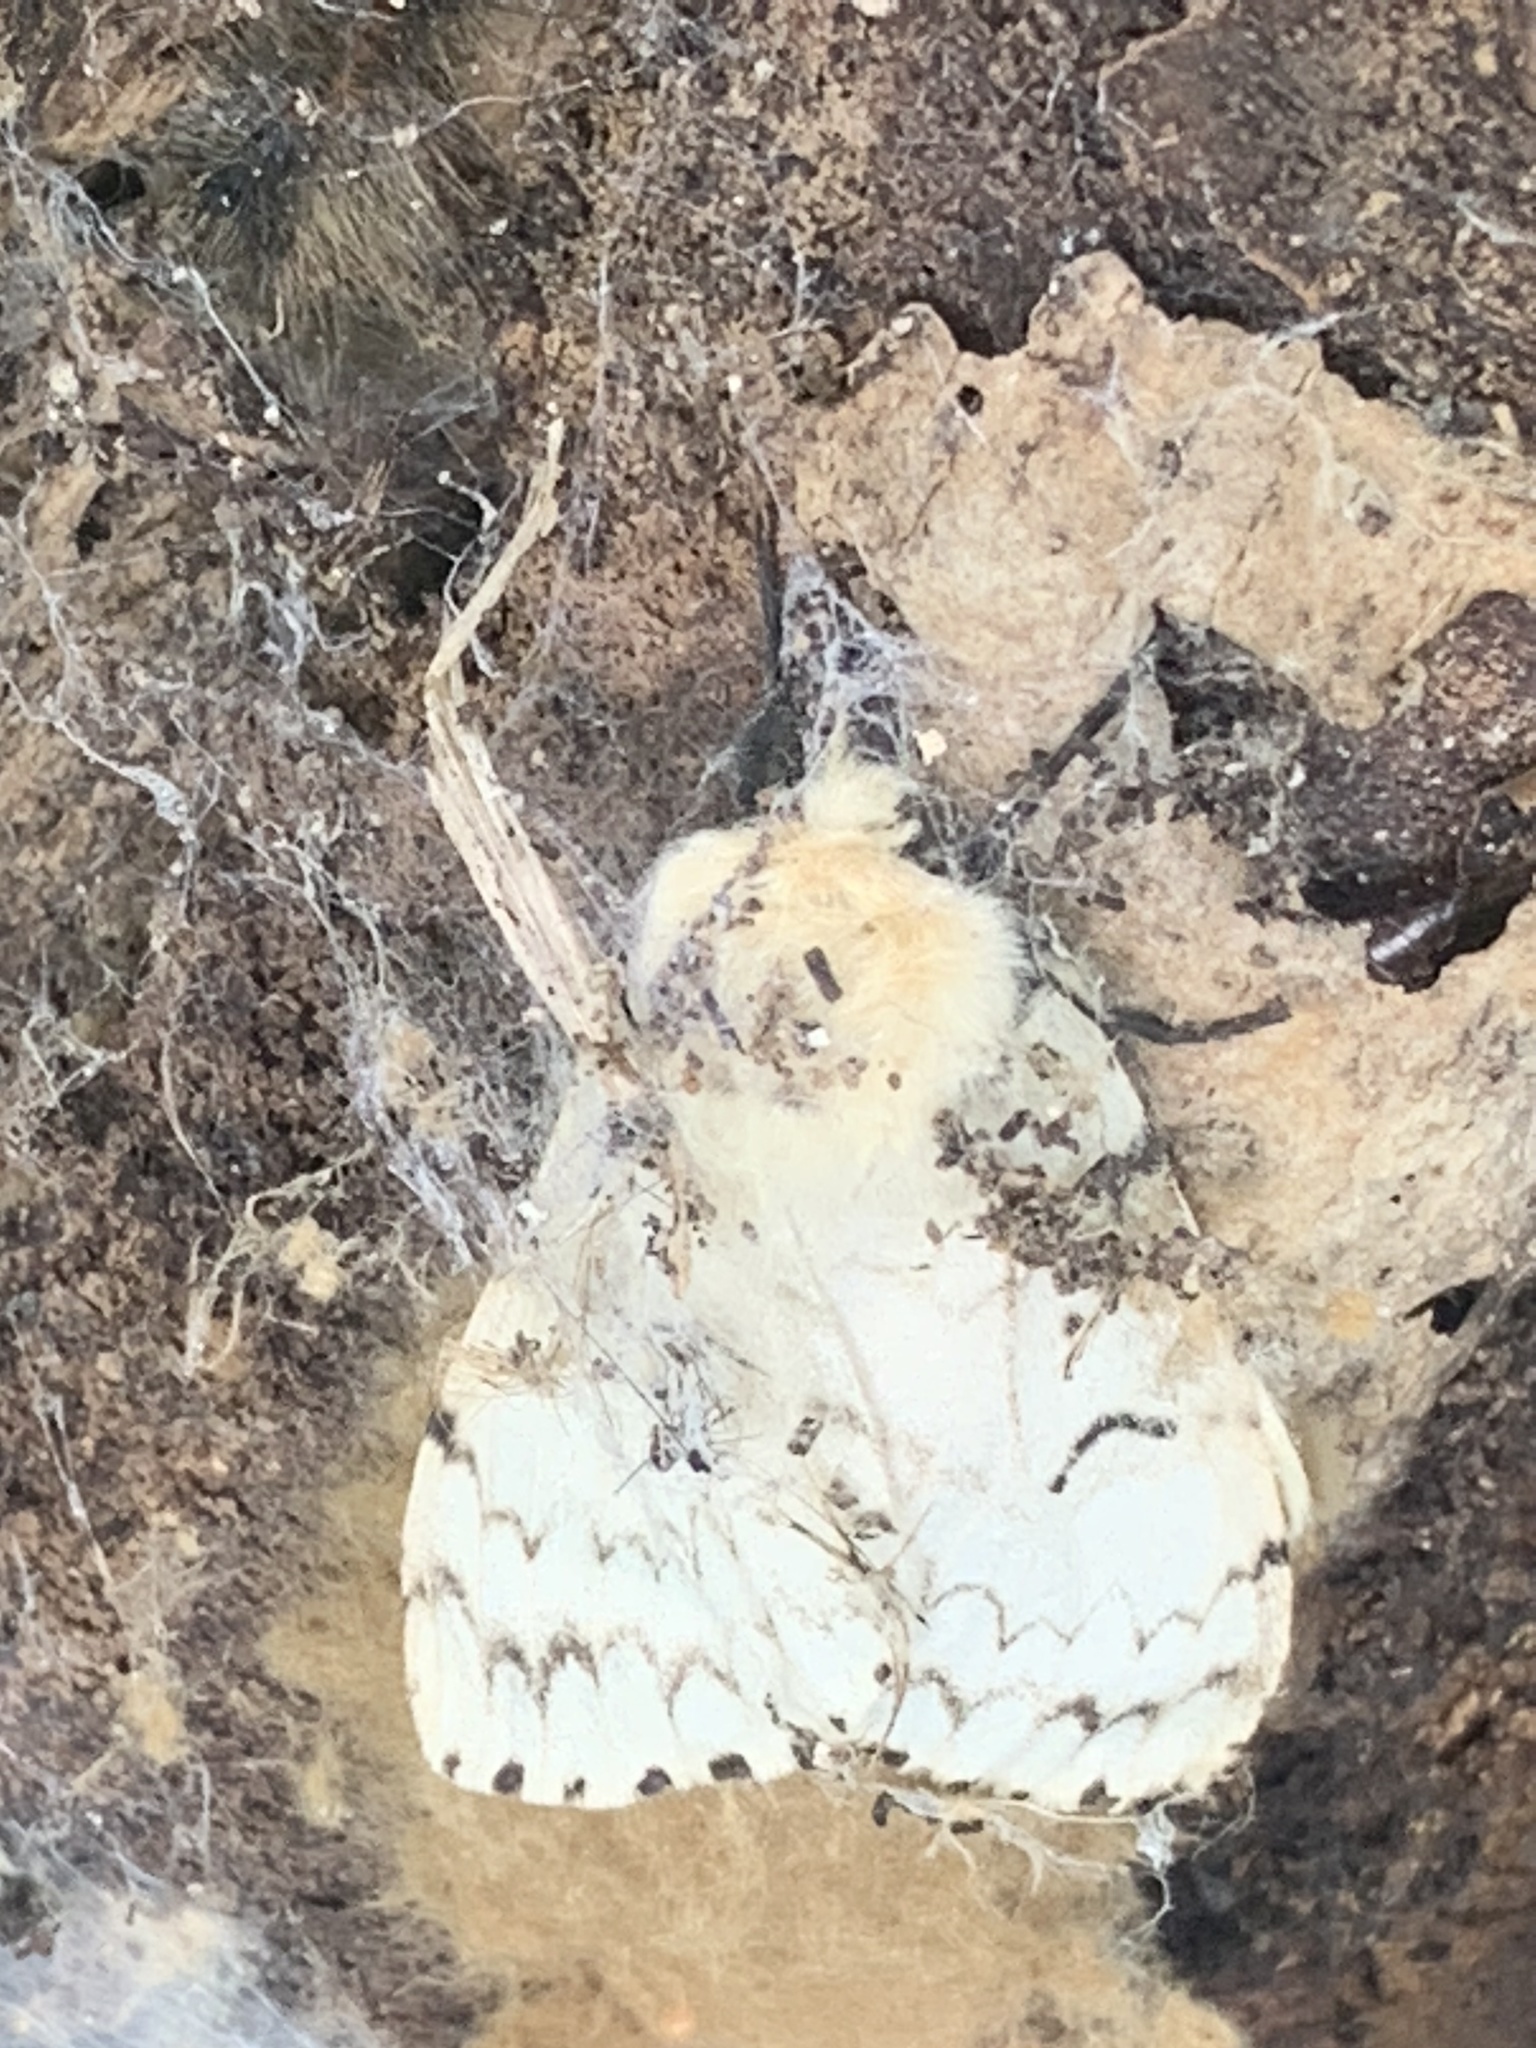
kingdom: Animalia
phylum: Arthropoda
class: Insecta
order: Lepidoptera
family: Erebidae
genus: Lymantria
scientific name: Lymantria dispar
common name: Gypsy moth
